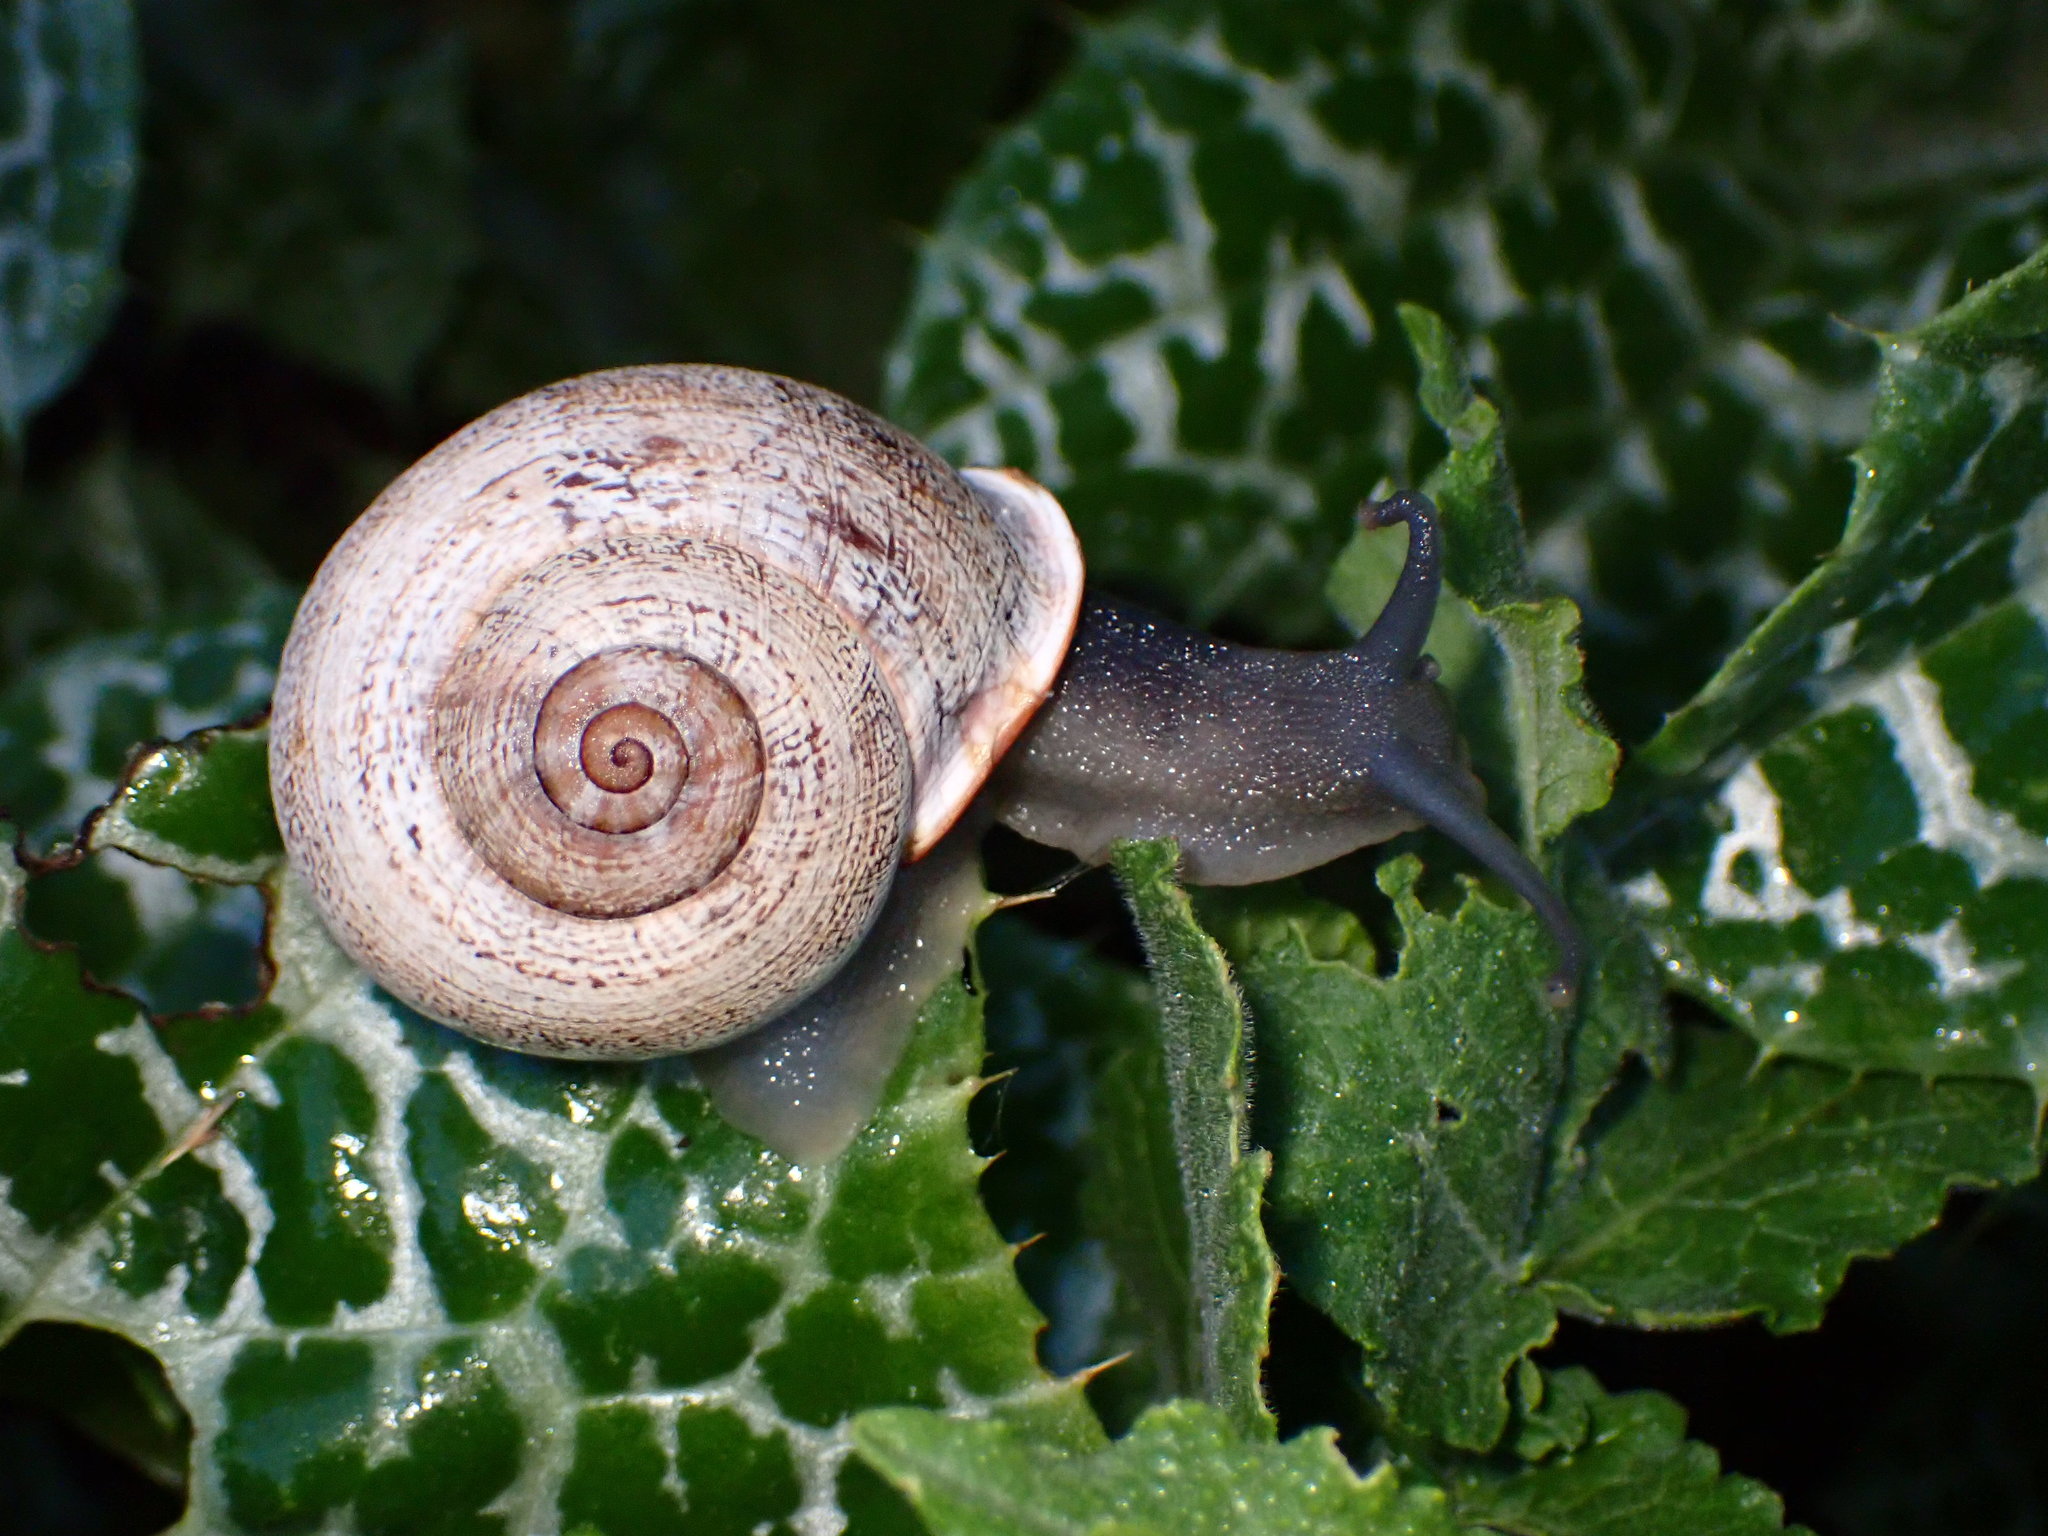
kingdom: Animalia
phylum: Mollusca
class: Gastropoda
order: Stylommatophora
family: Helicidae
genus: Otala
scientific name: Otala lactea
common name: Milk snail
